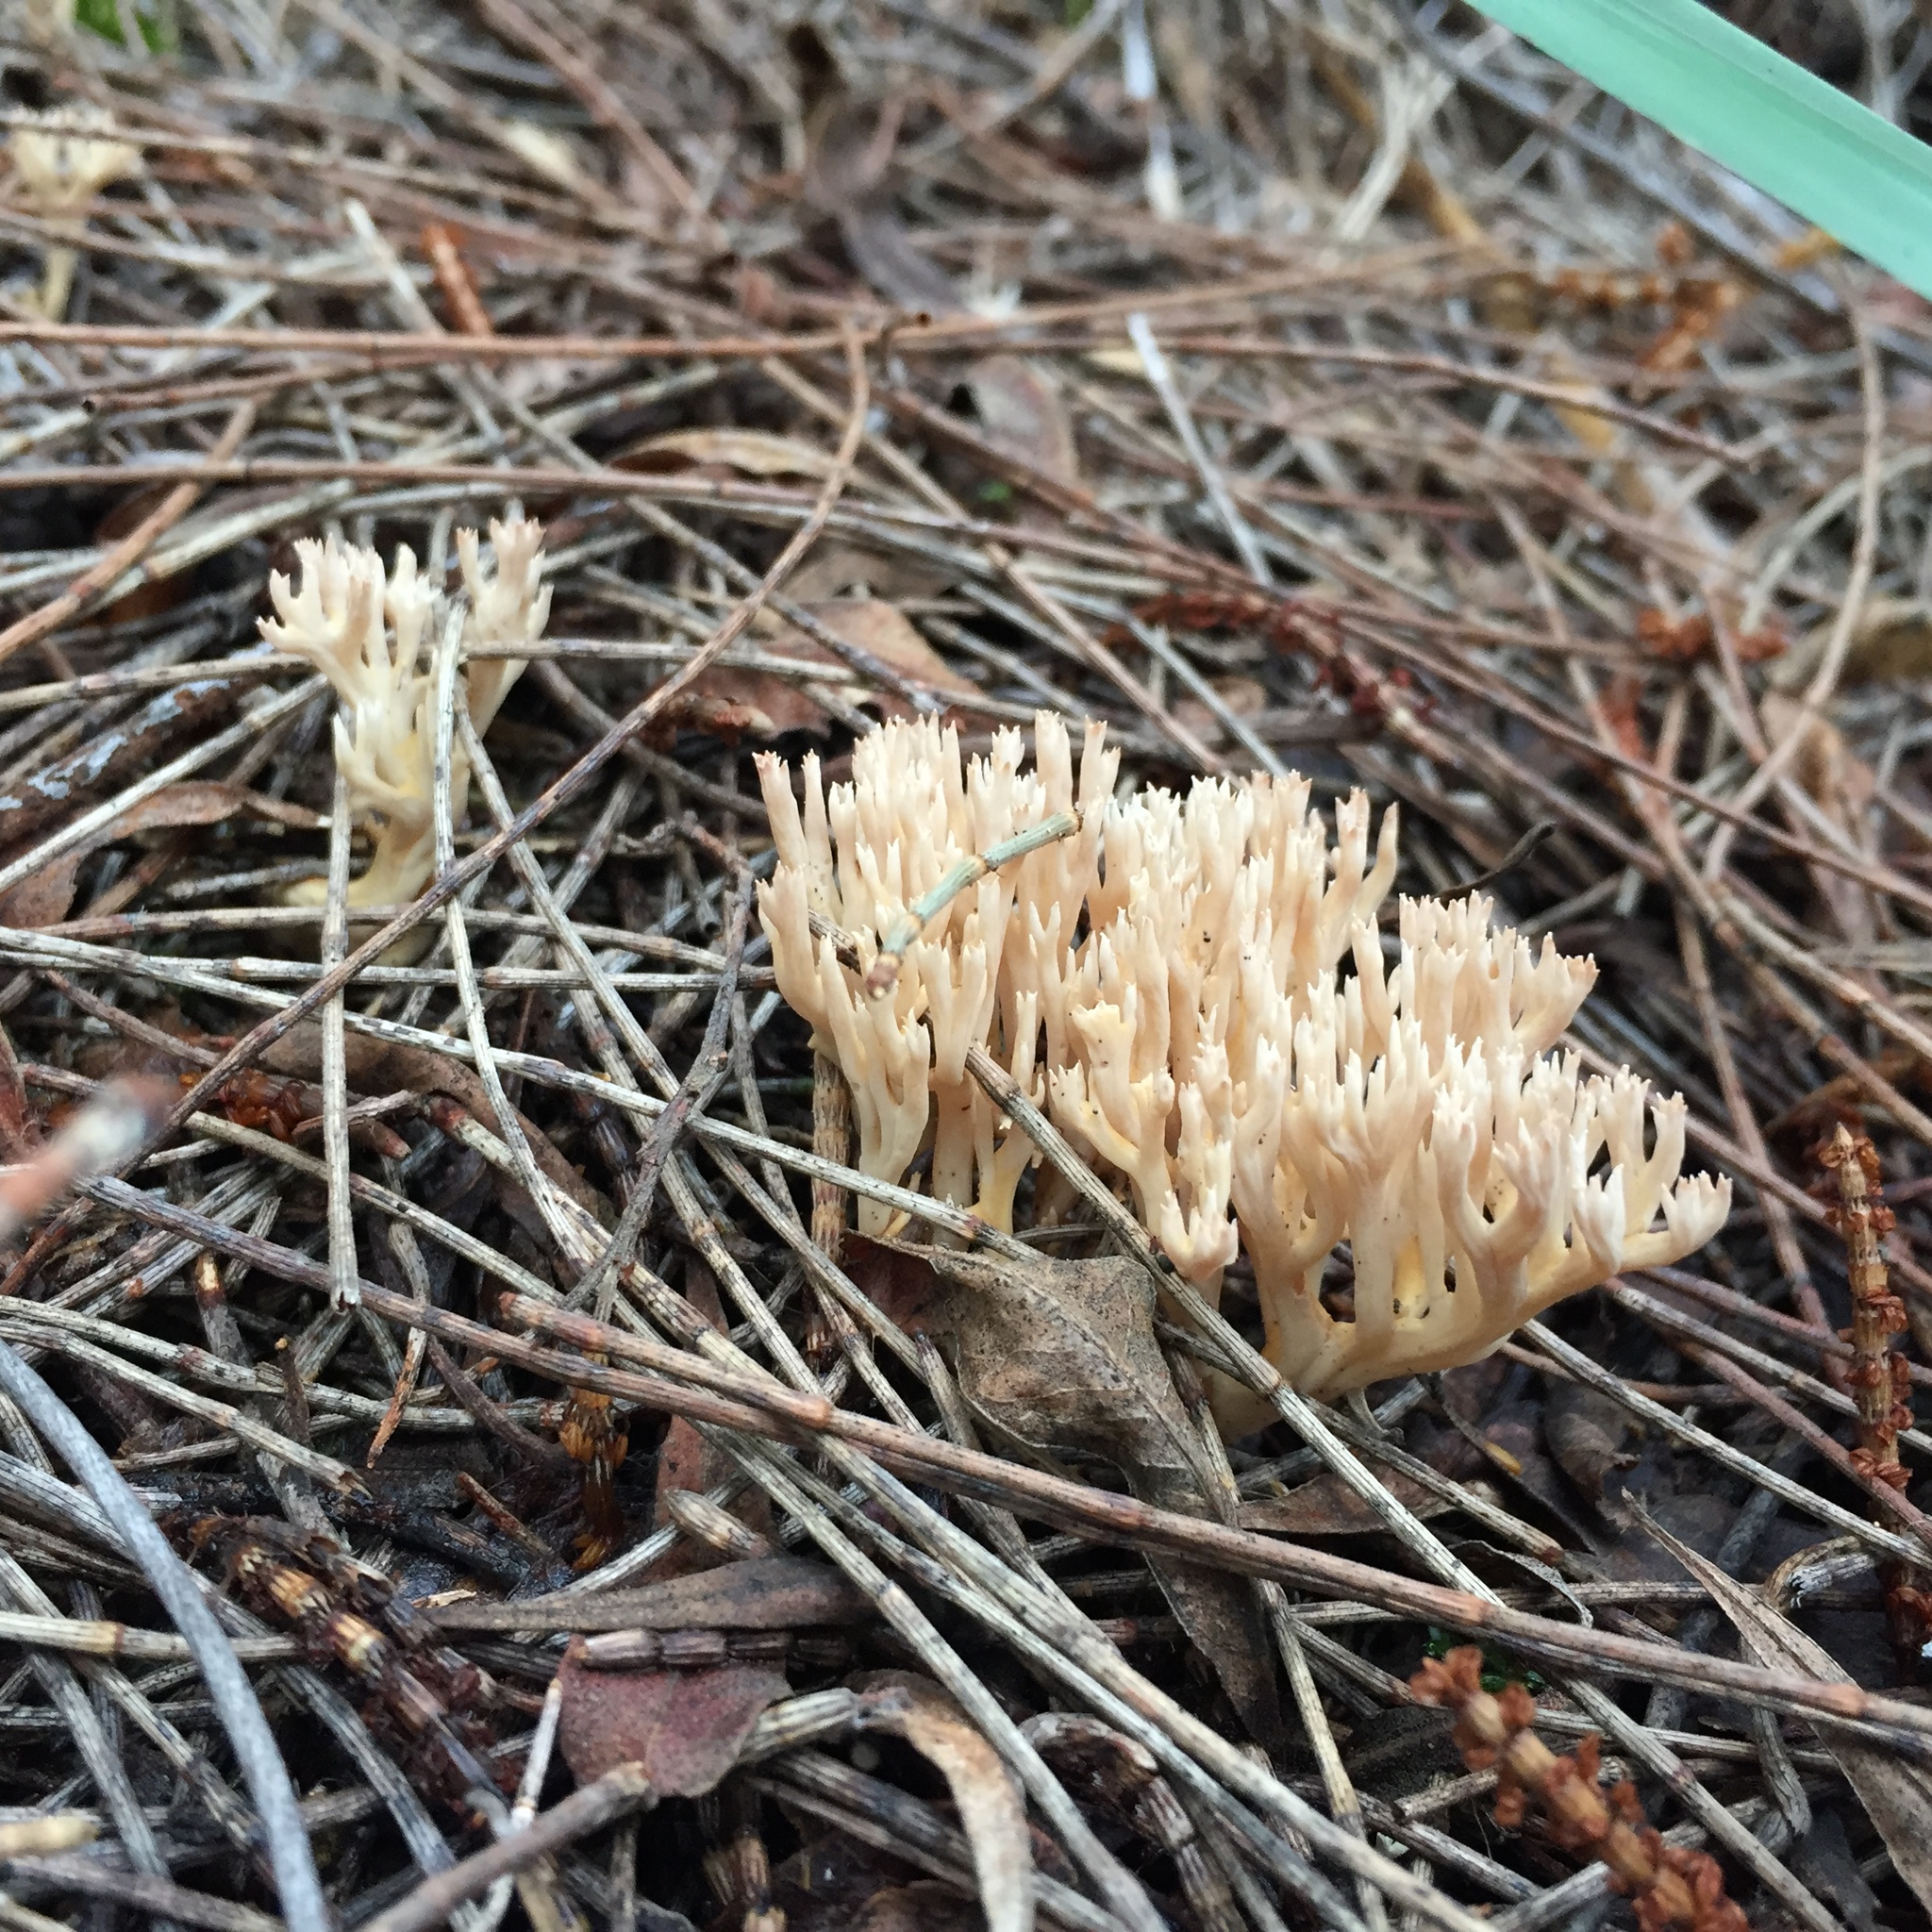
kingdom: Fungi
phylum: Basidiomycota
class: Agaricomycetes
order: Gomphales
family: Gomphaceae
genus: Ramaria
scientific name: Ramaria filicicola
